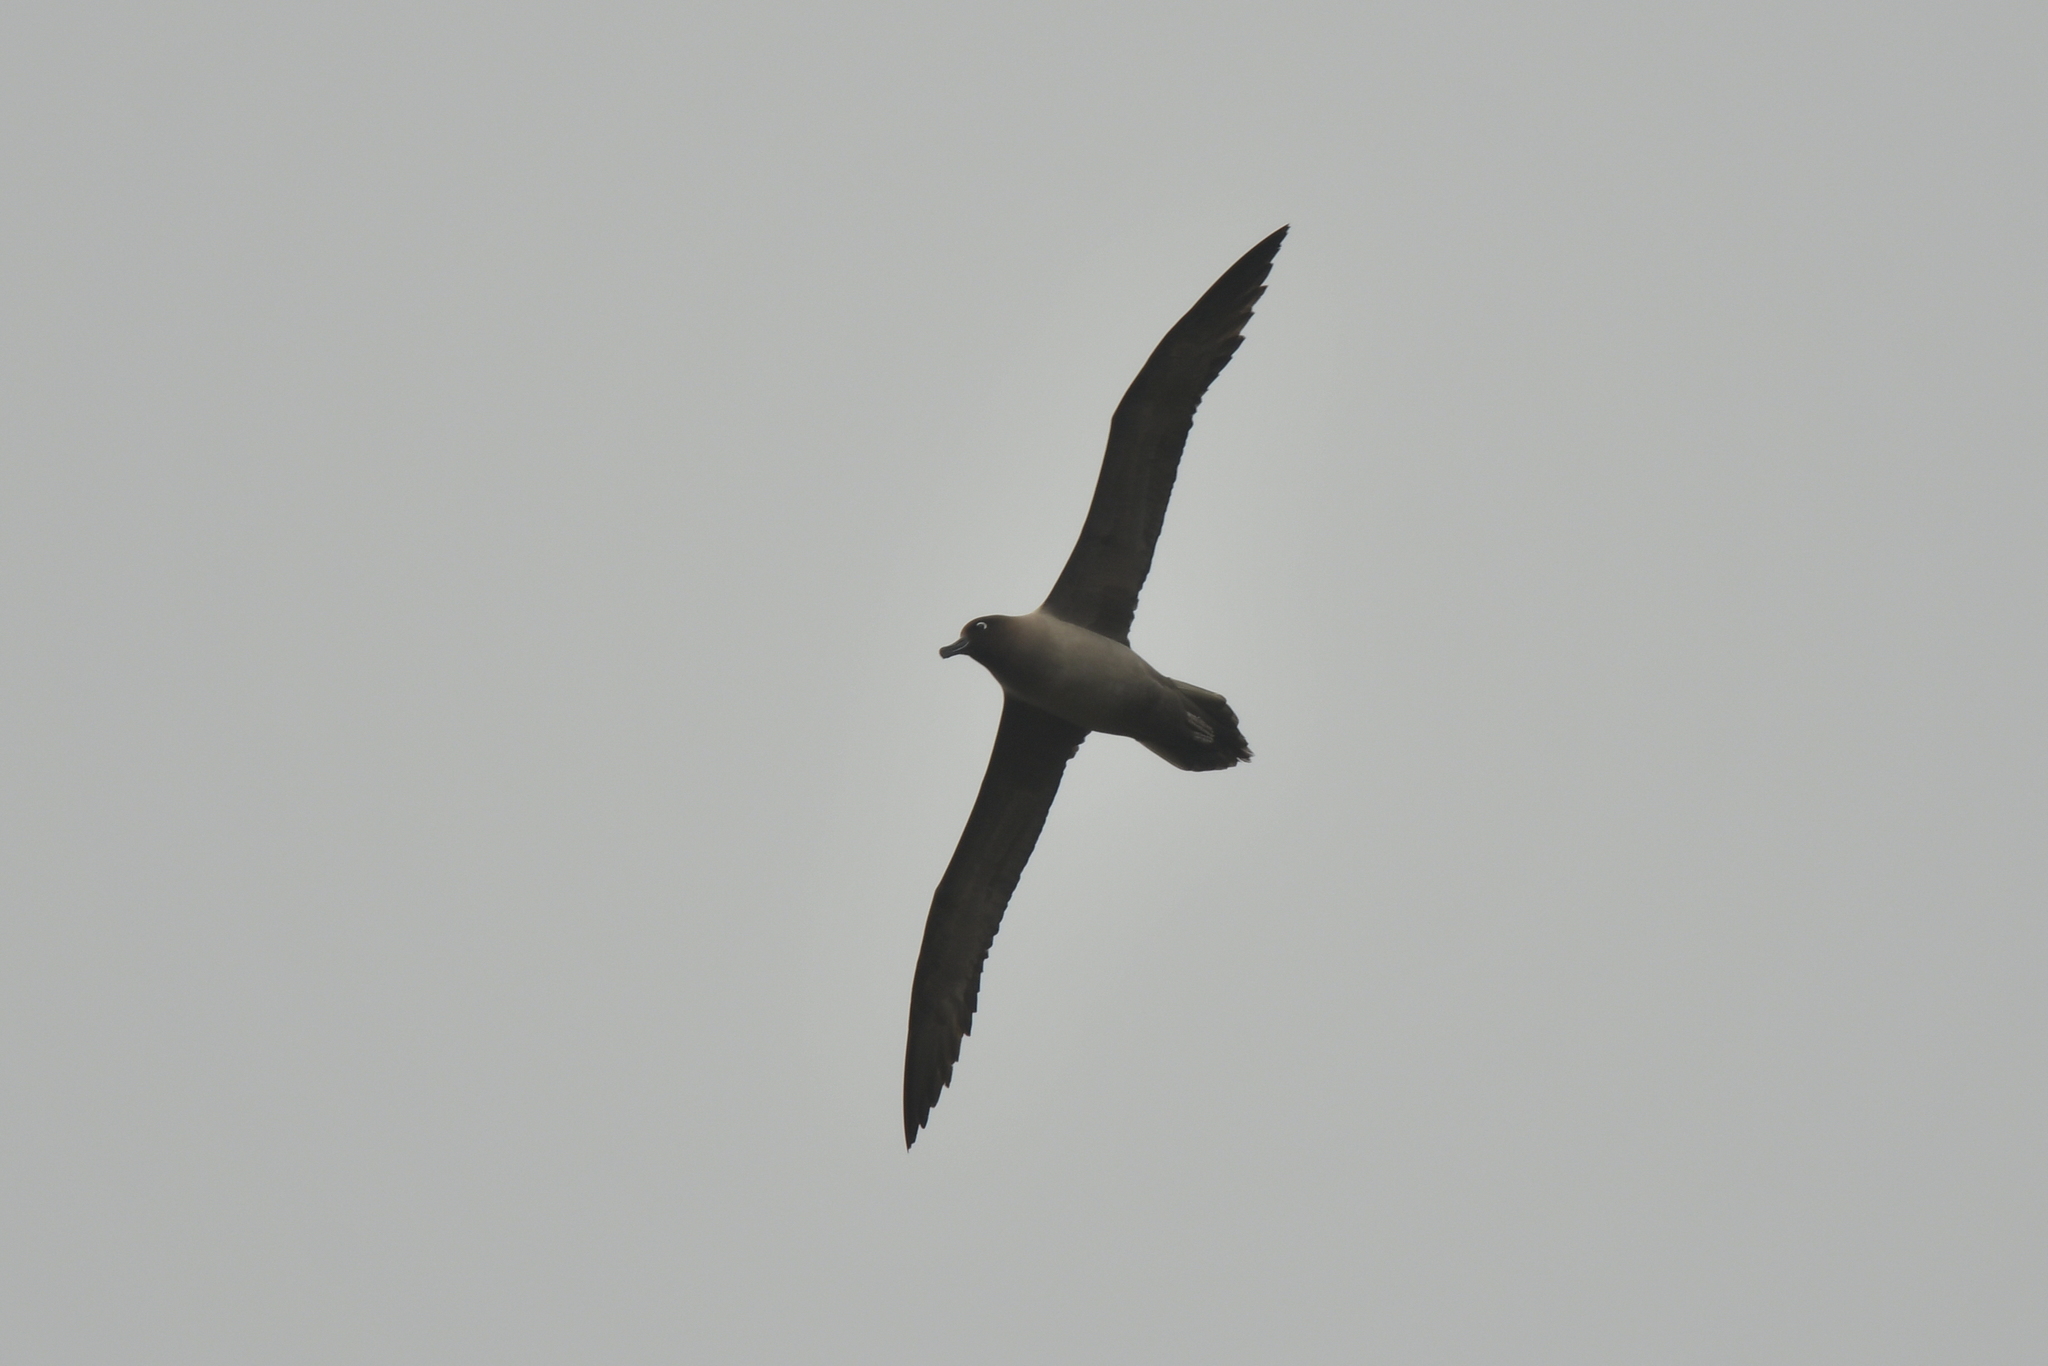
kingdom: Animalia
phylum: Chordata
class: Aves
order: Procellariiformes
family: Diomedeidae
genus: Phoebetria
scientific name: Phoebetria palpebrata
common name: Light-mantled albatross
